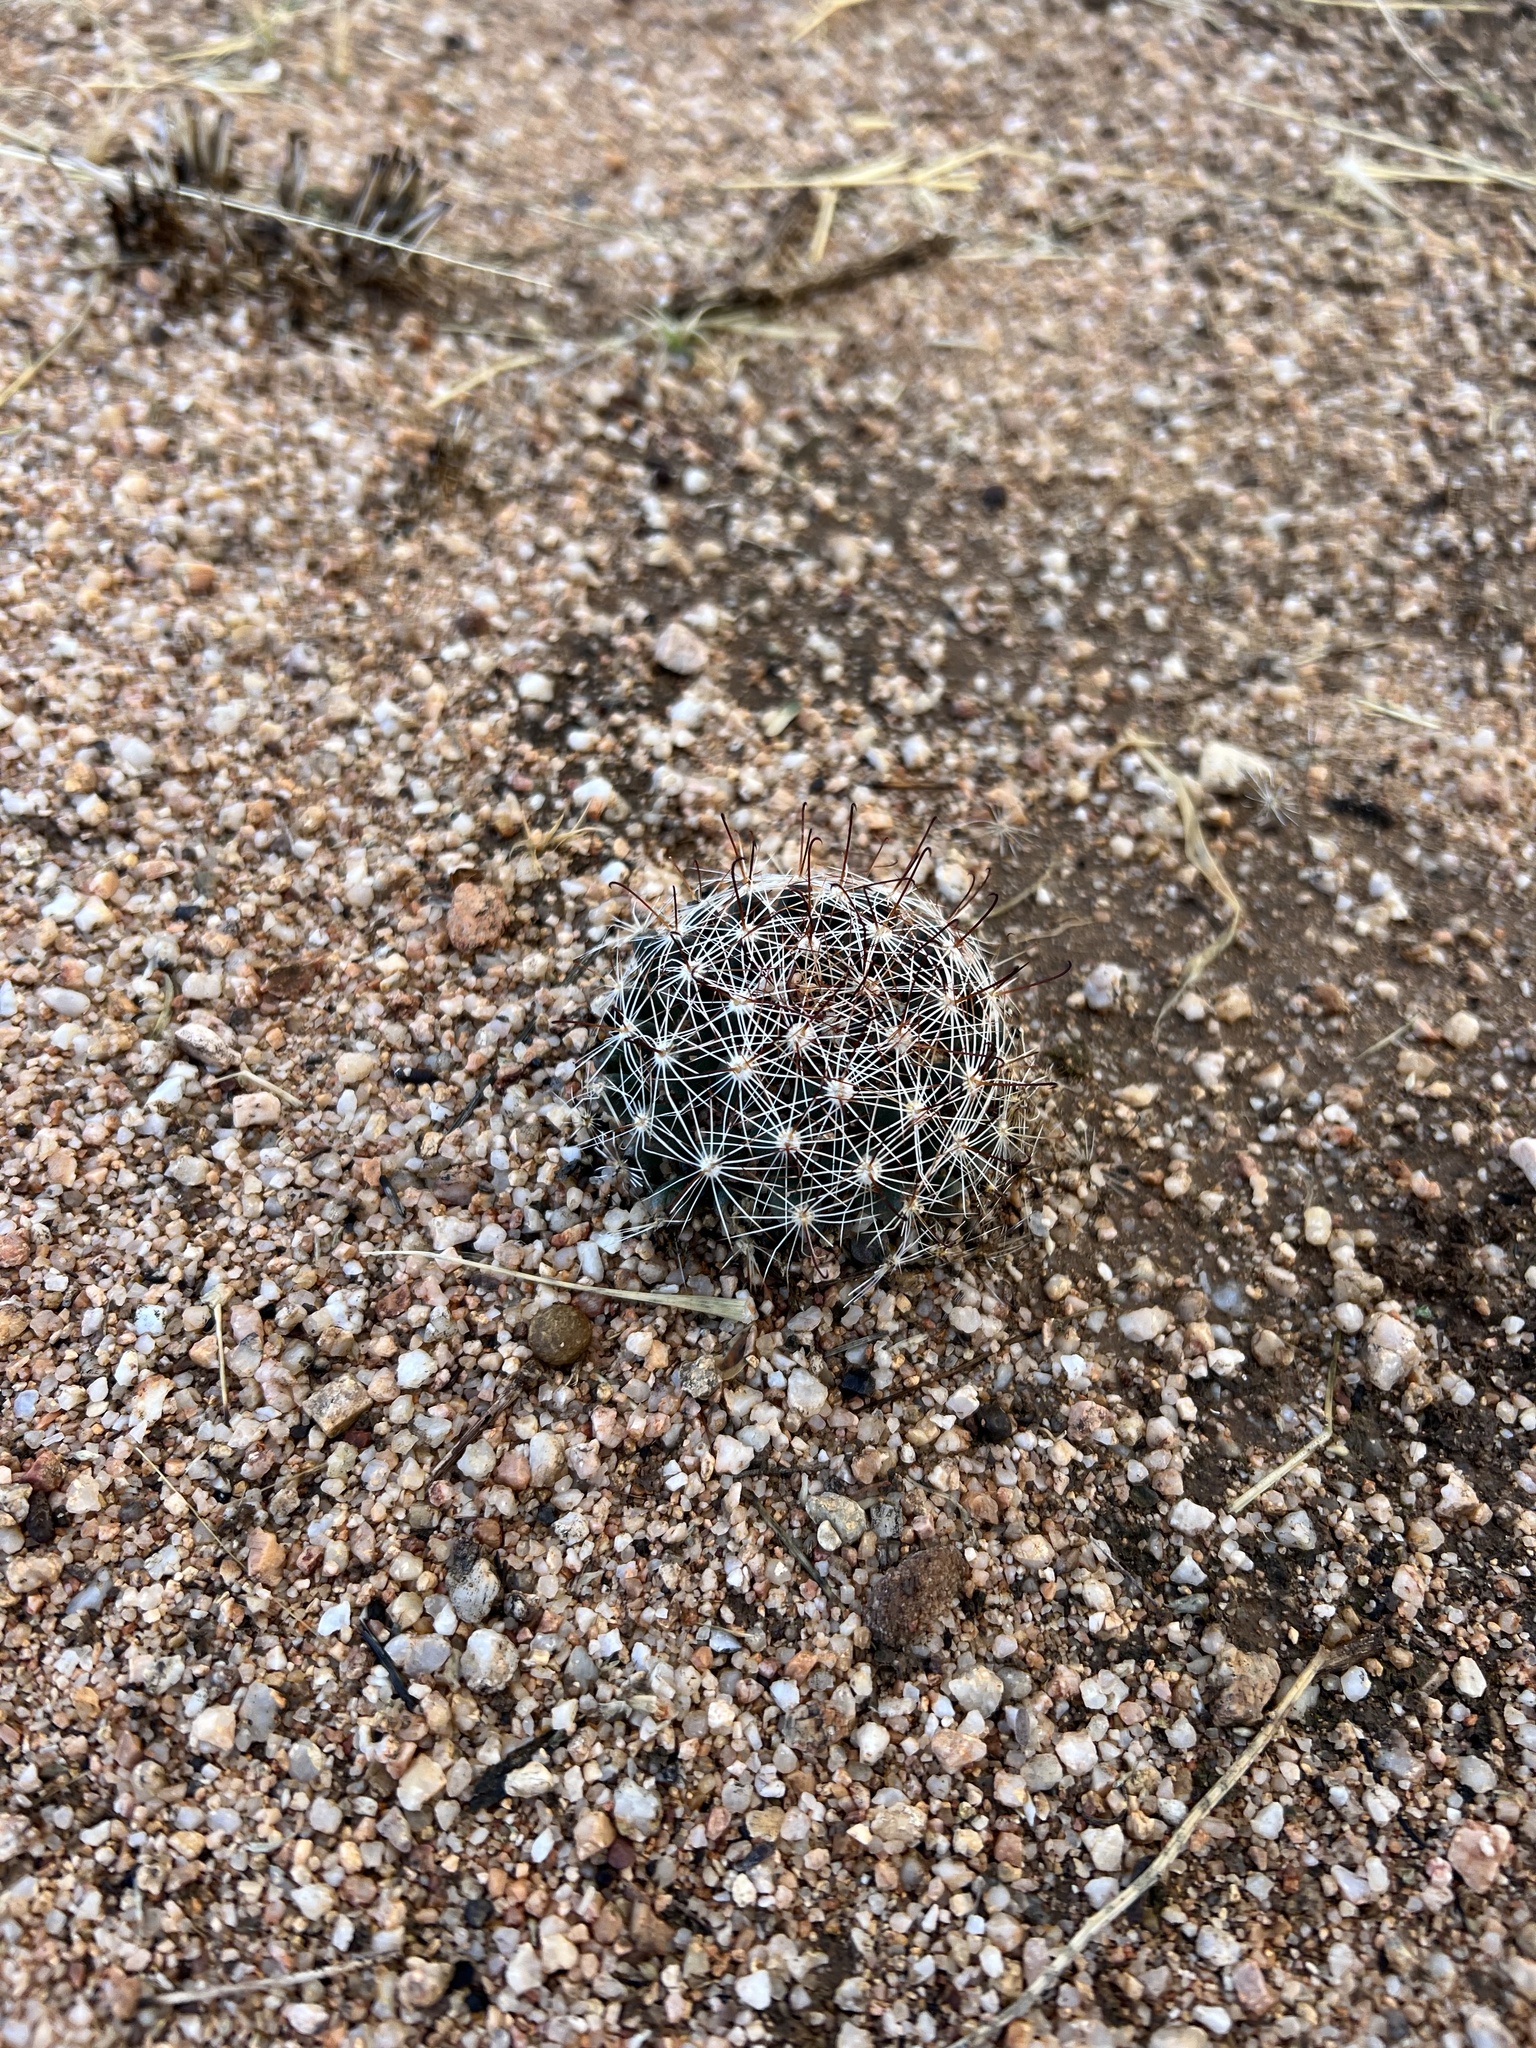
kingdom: Plantae
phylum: Tracheophyta
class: Magnoliopsida
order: Caryophyllales
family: Cactaceae
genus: Cochemiea
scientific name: Cochemiea wrightii
